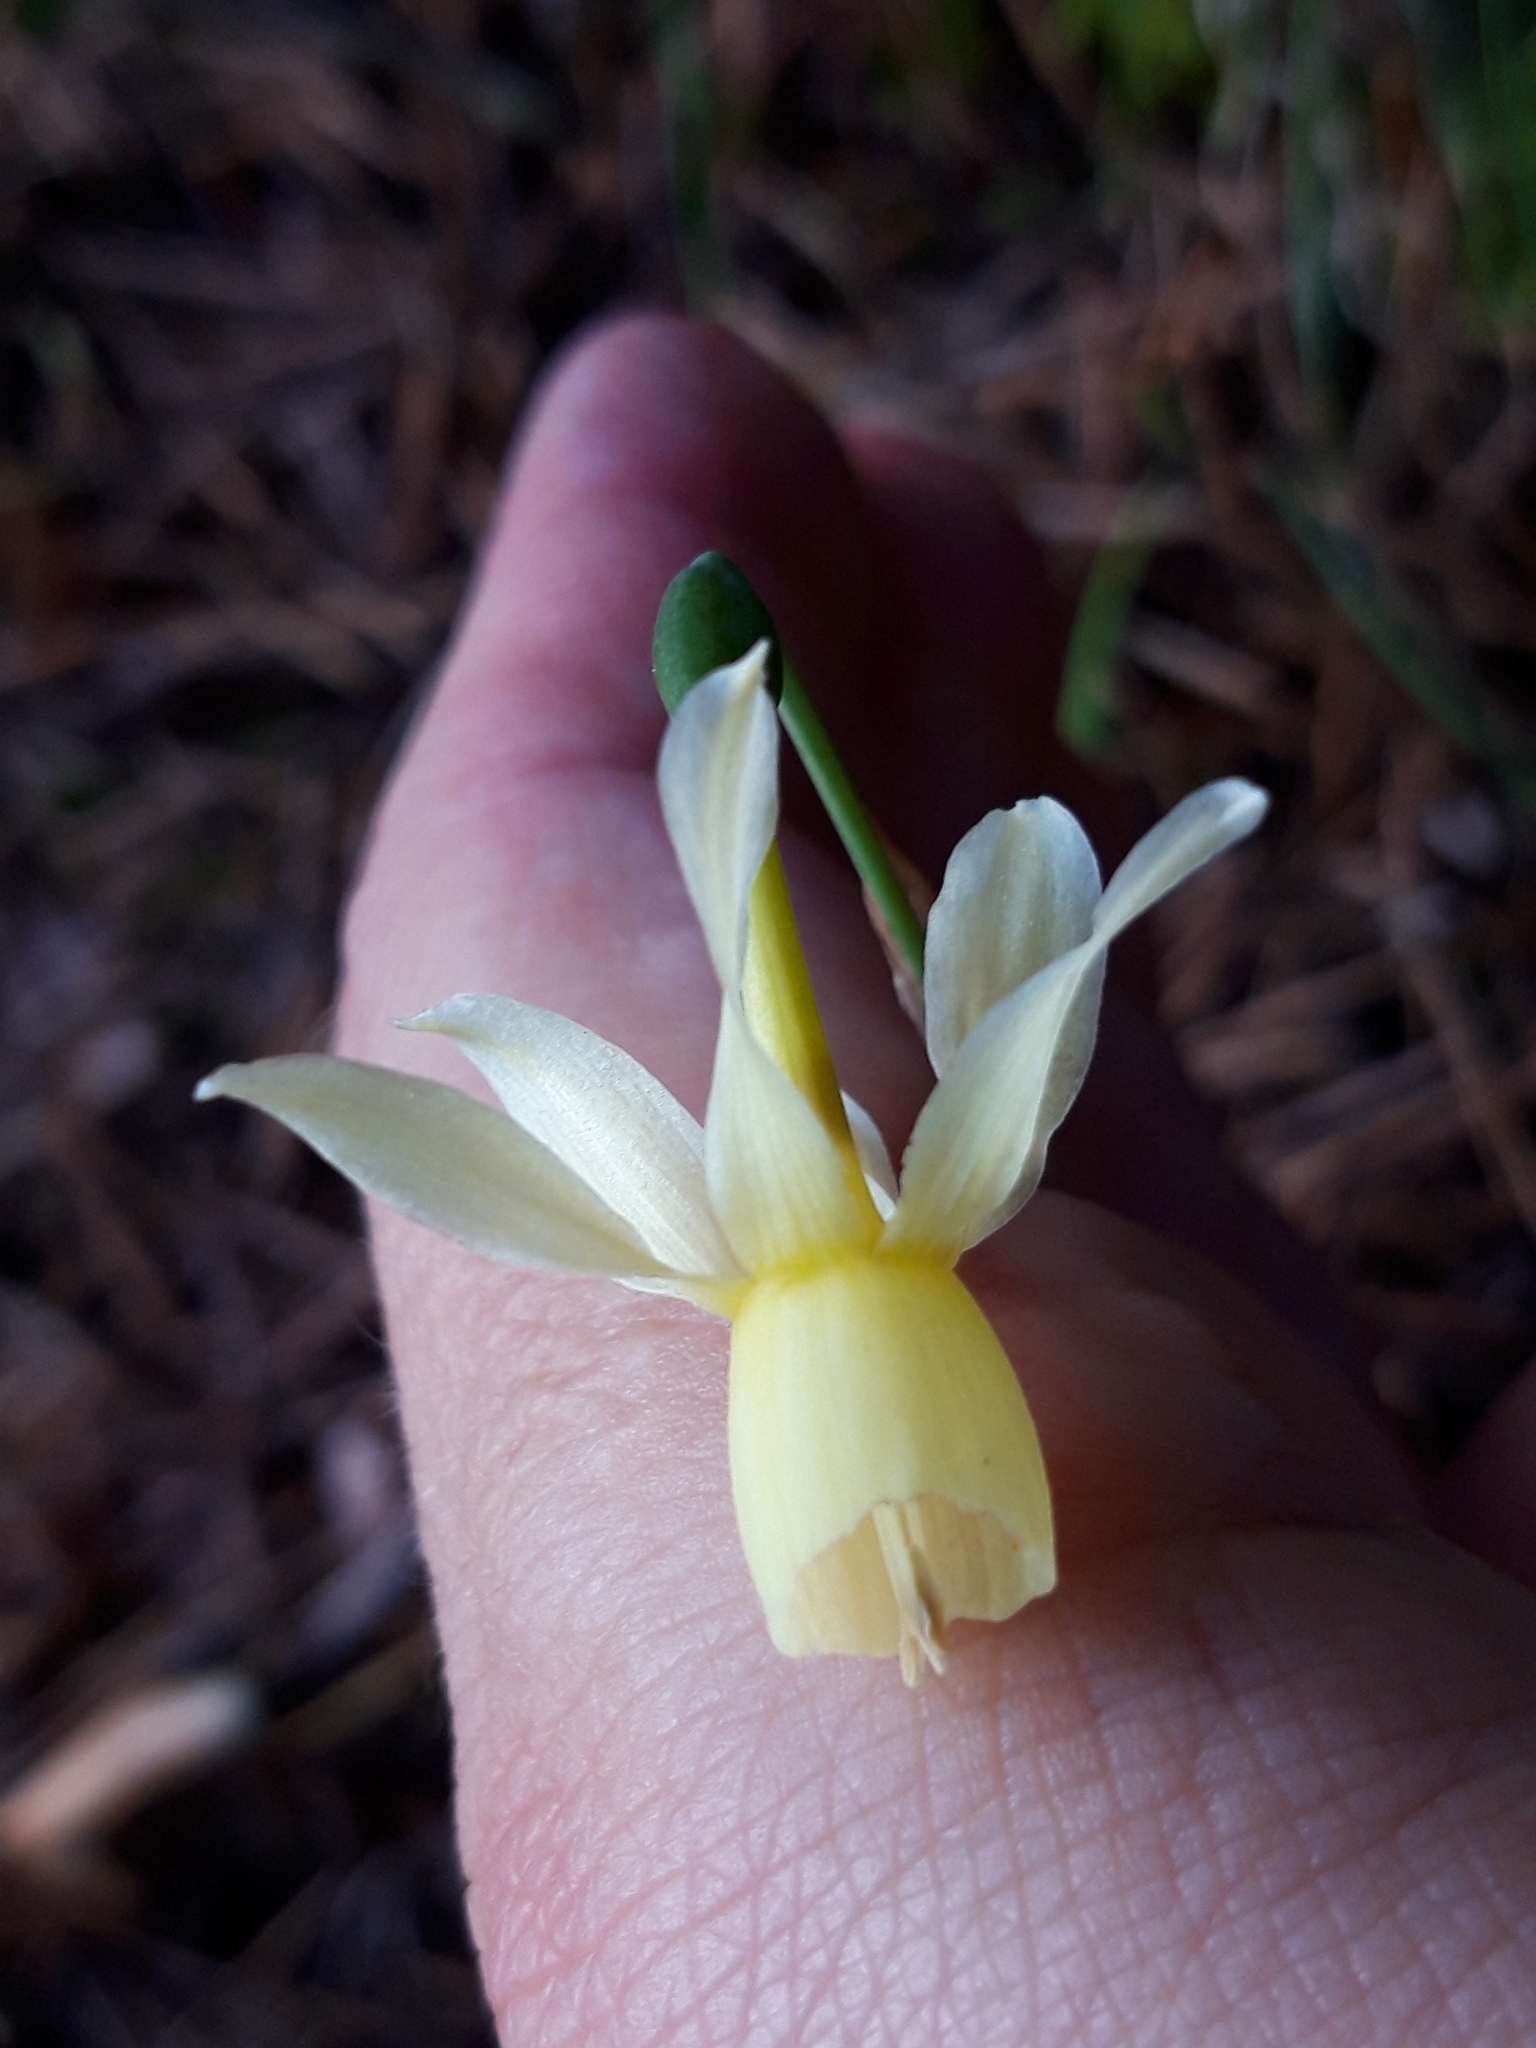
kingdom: Plantae
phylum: Tracheophyta
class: Liliopsida
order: Asparagales
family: Amaryllidaceae
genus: Narcissus
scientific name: Narcissus triandrus
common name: Angel's-tears
